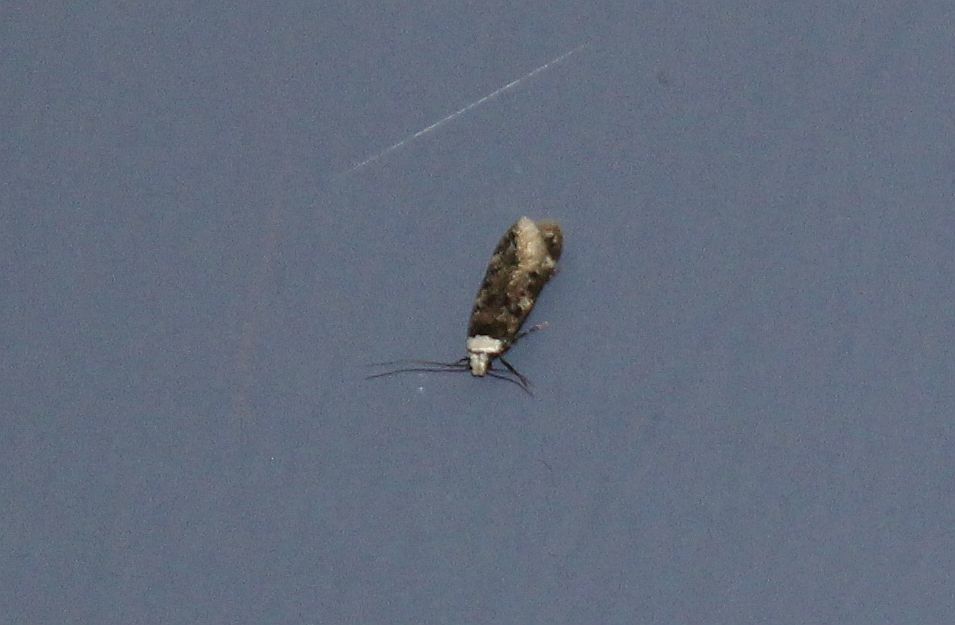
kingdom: Animalia
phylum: Arthropoda
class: Insecta
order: Lepidoptera
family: Oecophoridae
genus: Endrosis
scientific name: Endrosis sarcitrella
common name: White-shouldered house moth
